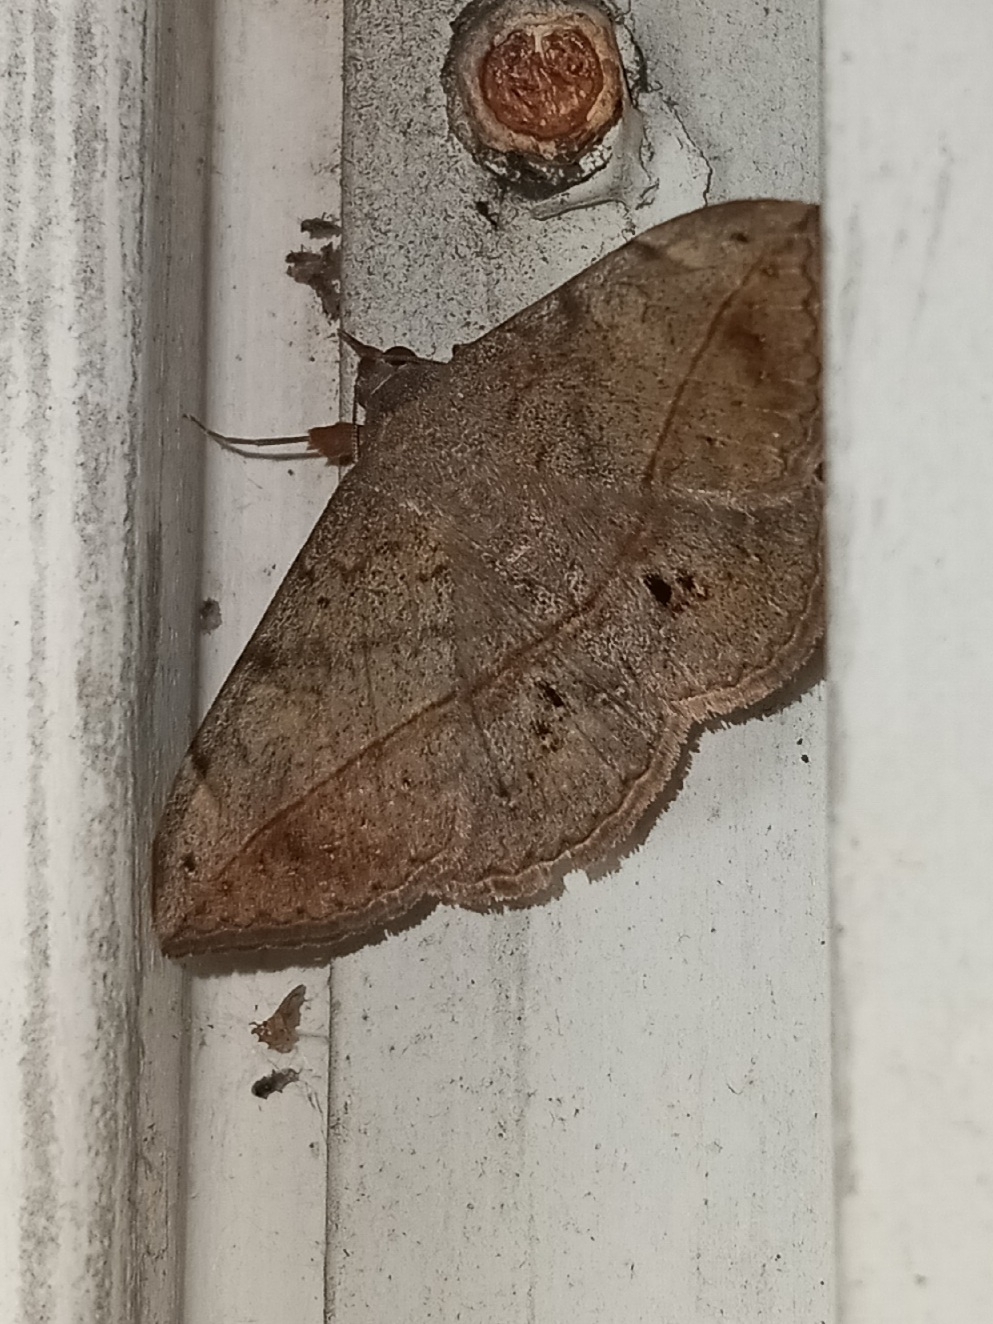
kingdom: Animalia
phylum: Arthropoda
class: Insecta
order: Lepidoptera
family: Erebidae
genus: Anticarsia
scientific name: Anticarsia gemmatalis
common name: Cutworm moth
